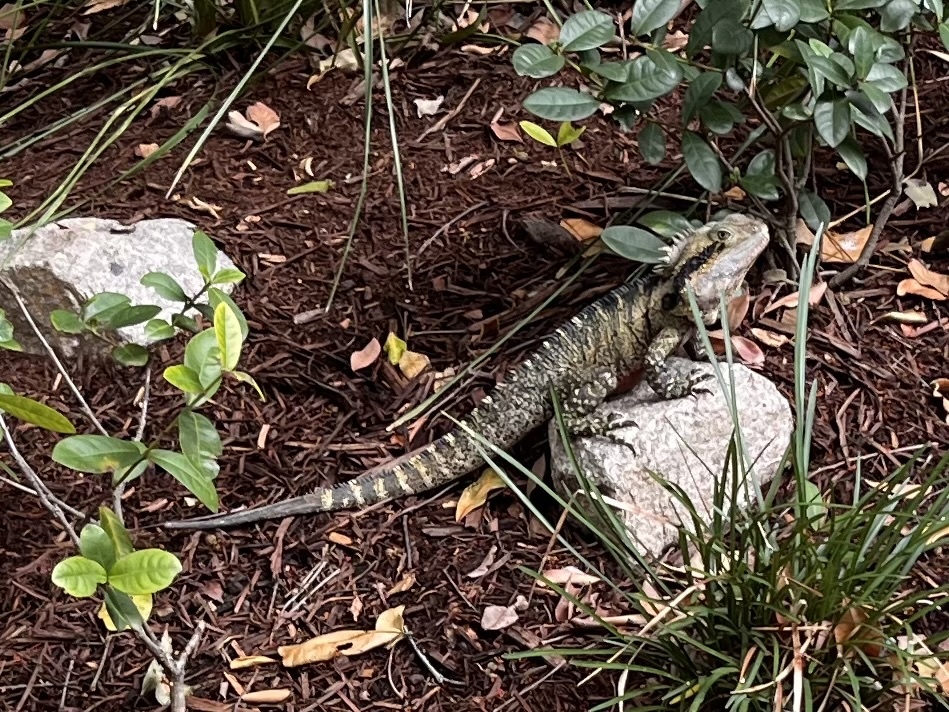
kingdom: Animalia
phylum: Chordata
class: Squamata
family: Agamidae
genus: Intellagama
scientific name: Intellagama lesueurii
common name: Eastern water dragon
